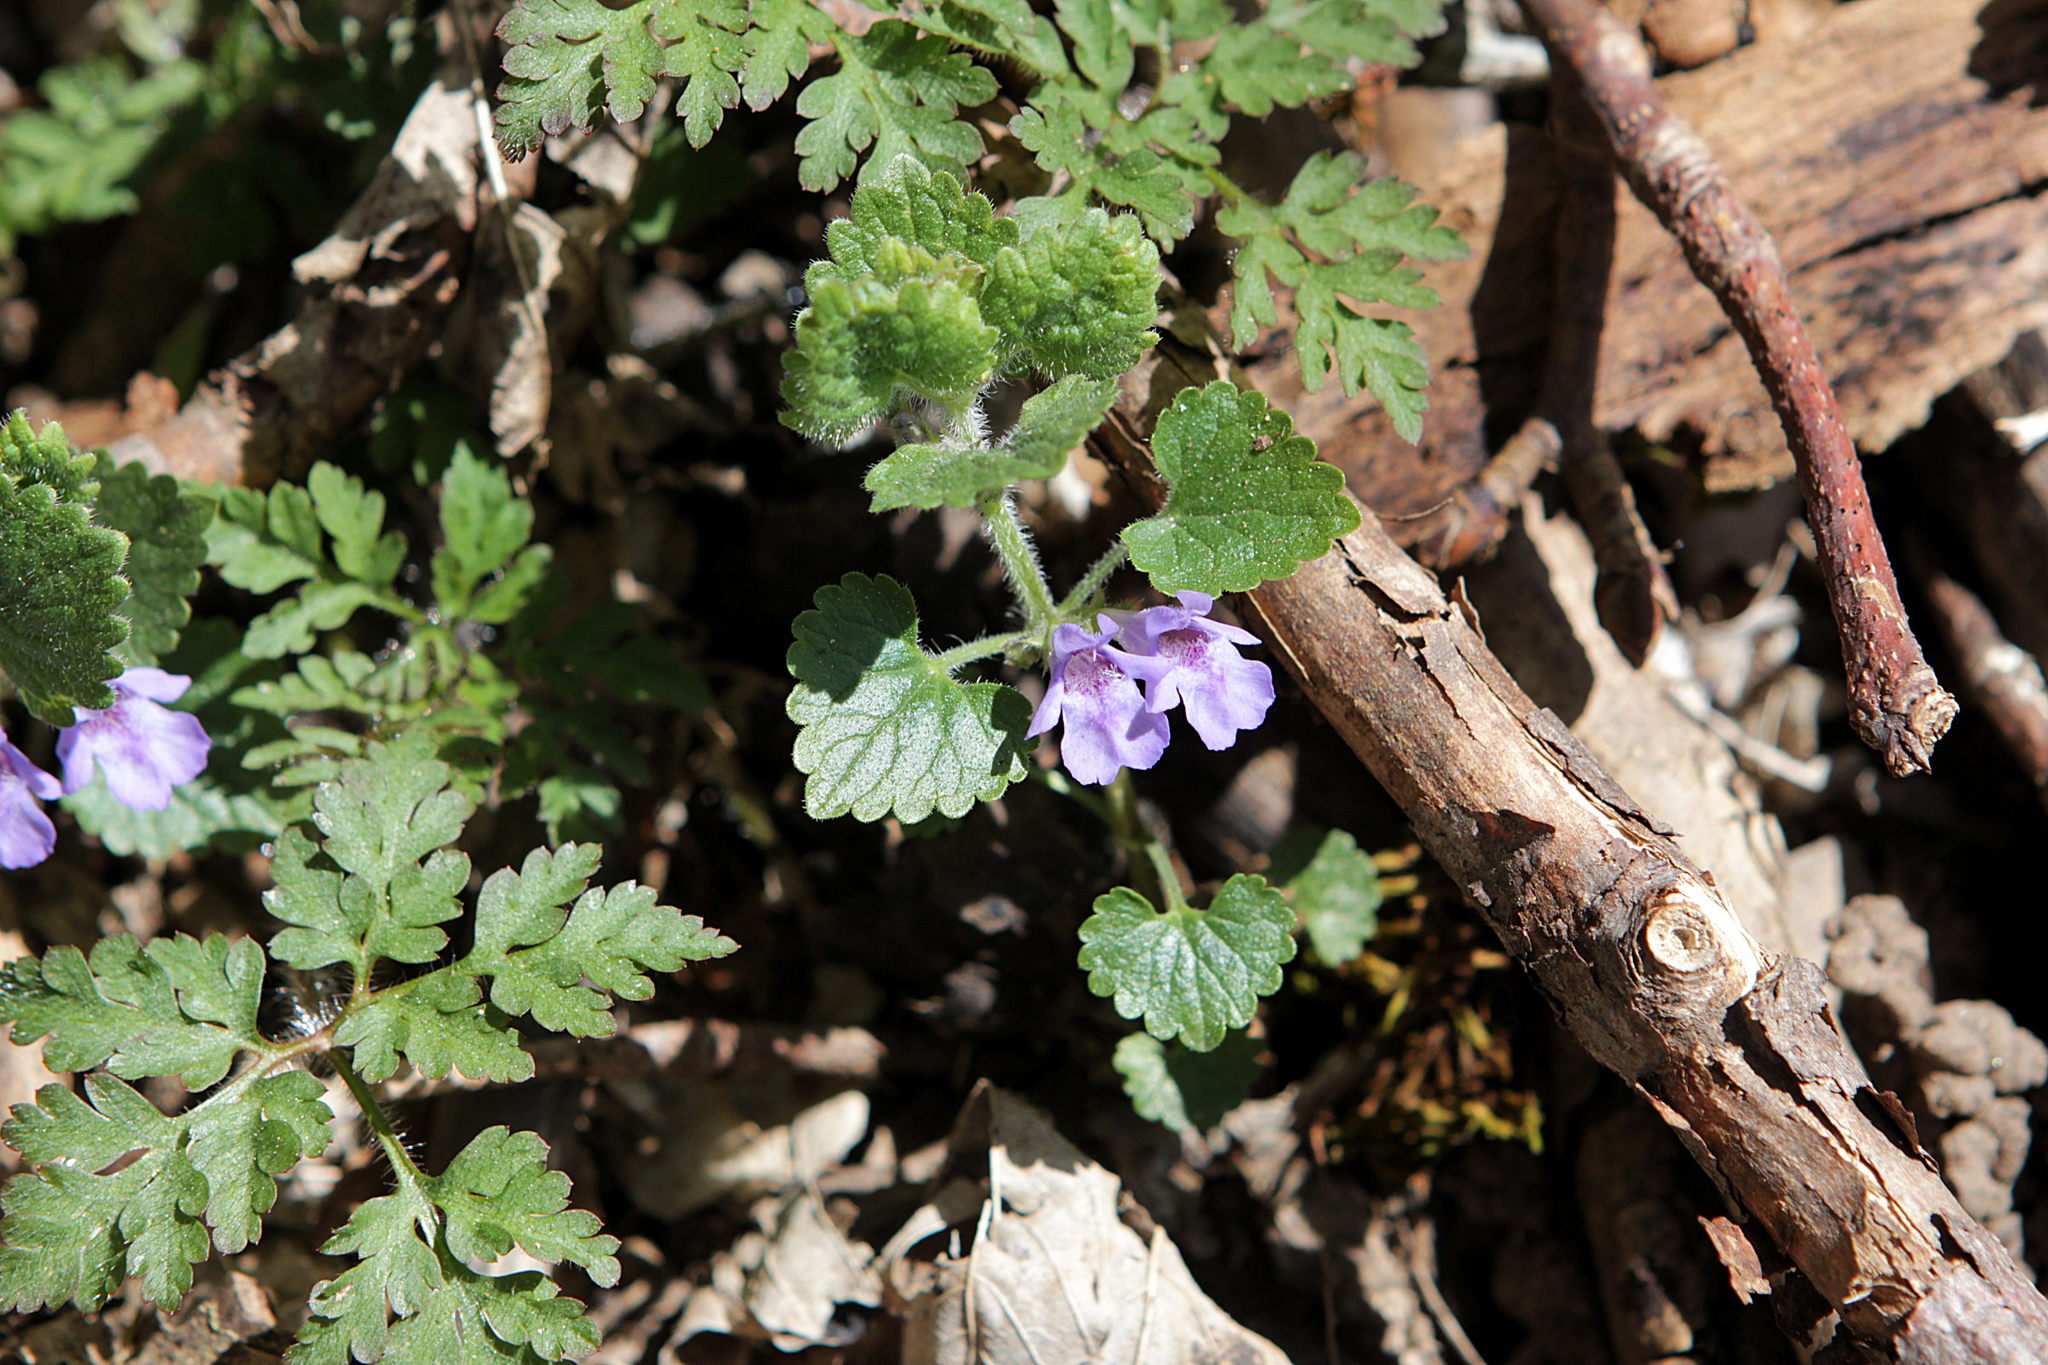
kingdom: Plantae
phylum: Tracheophyta
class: Magnoliopsida
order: Lamiales
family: Lamiaceae
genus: Glechoma
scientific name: Glechoma hederacea
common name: Ground ivy
